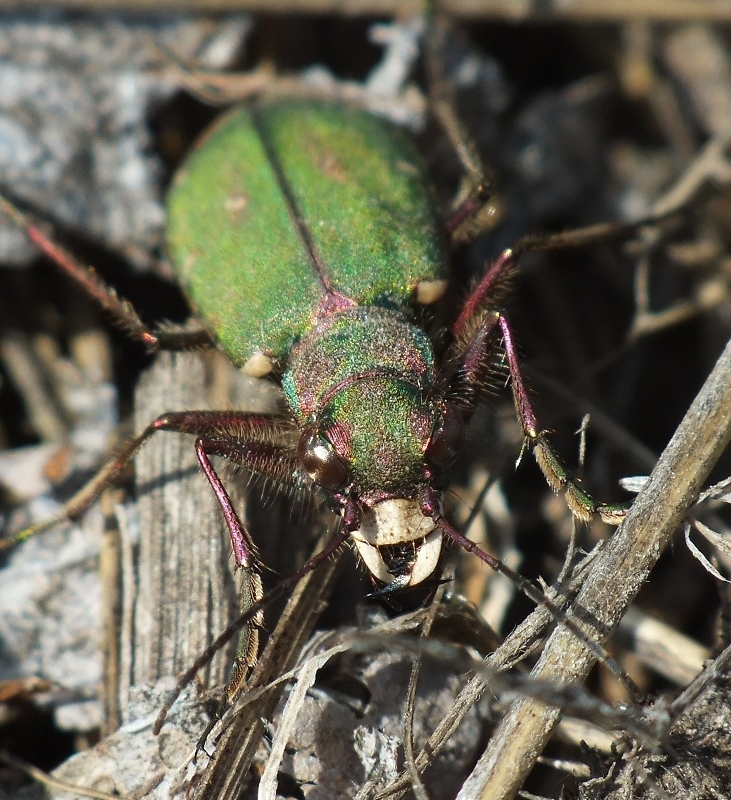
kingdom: Animalia
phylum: Arthropoda
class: Insecta
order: Coleoptera
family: Carabidae
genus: Cicindela
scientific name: Cicindela campestris
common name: Common tiger beetle
